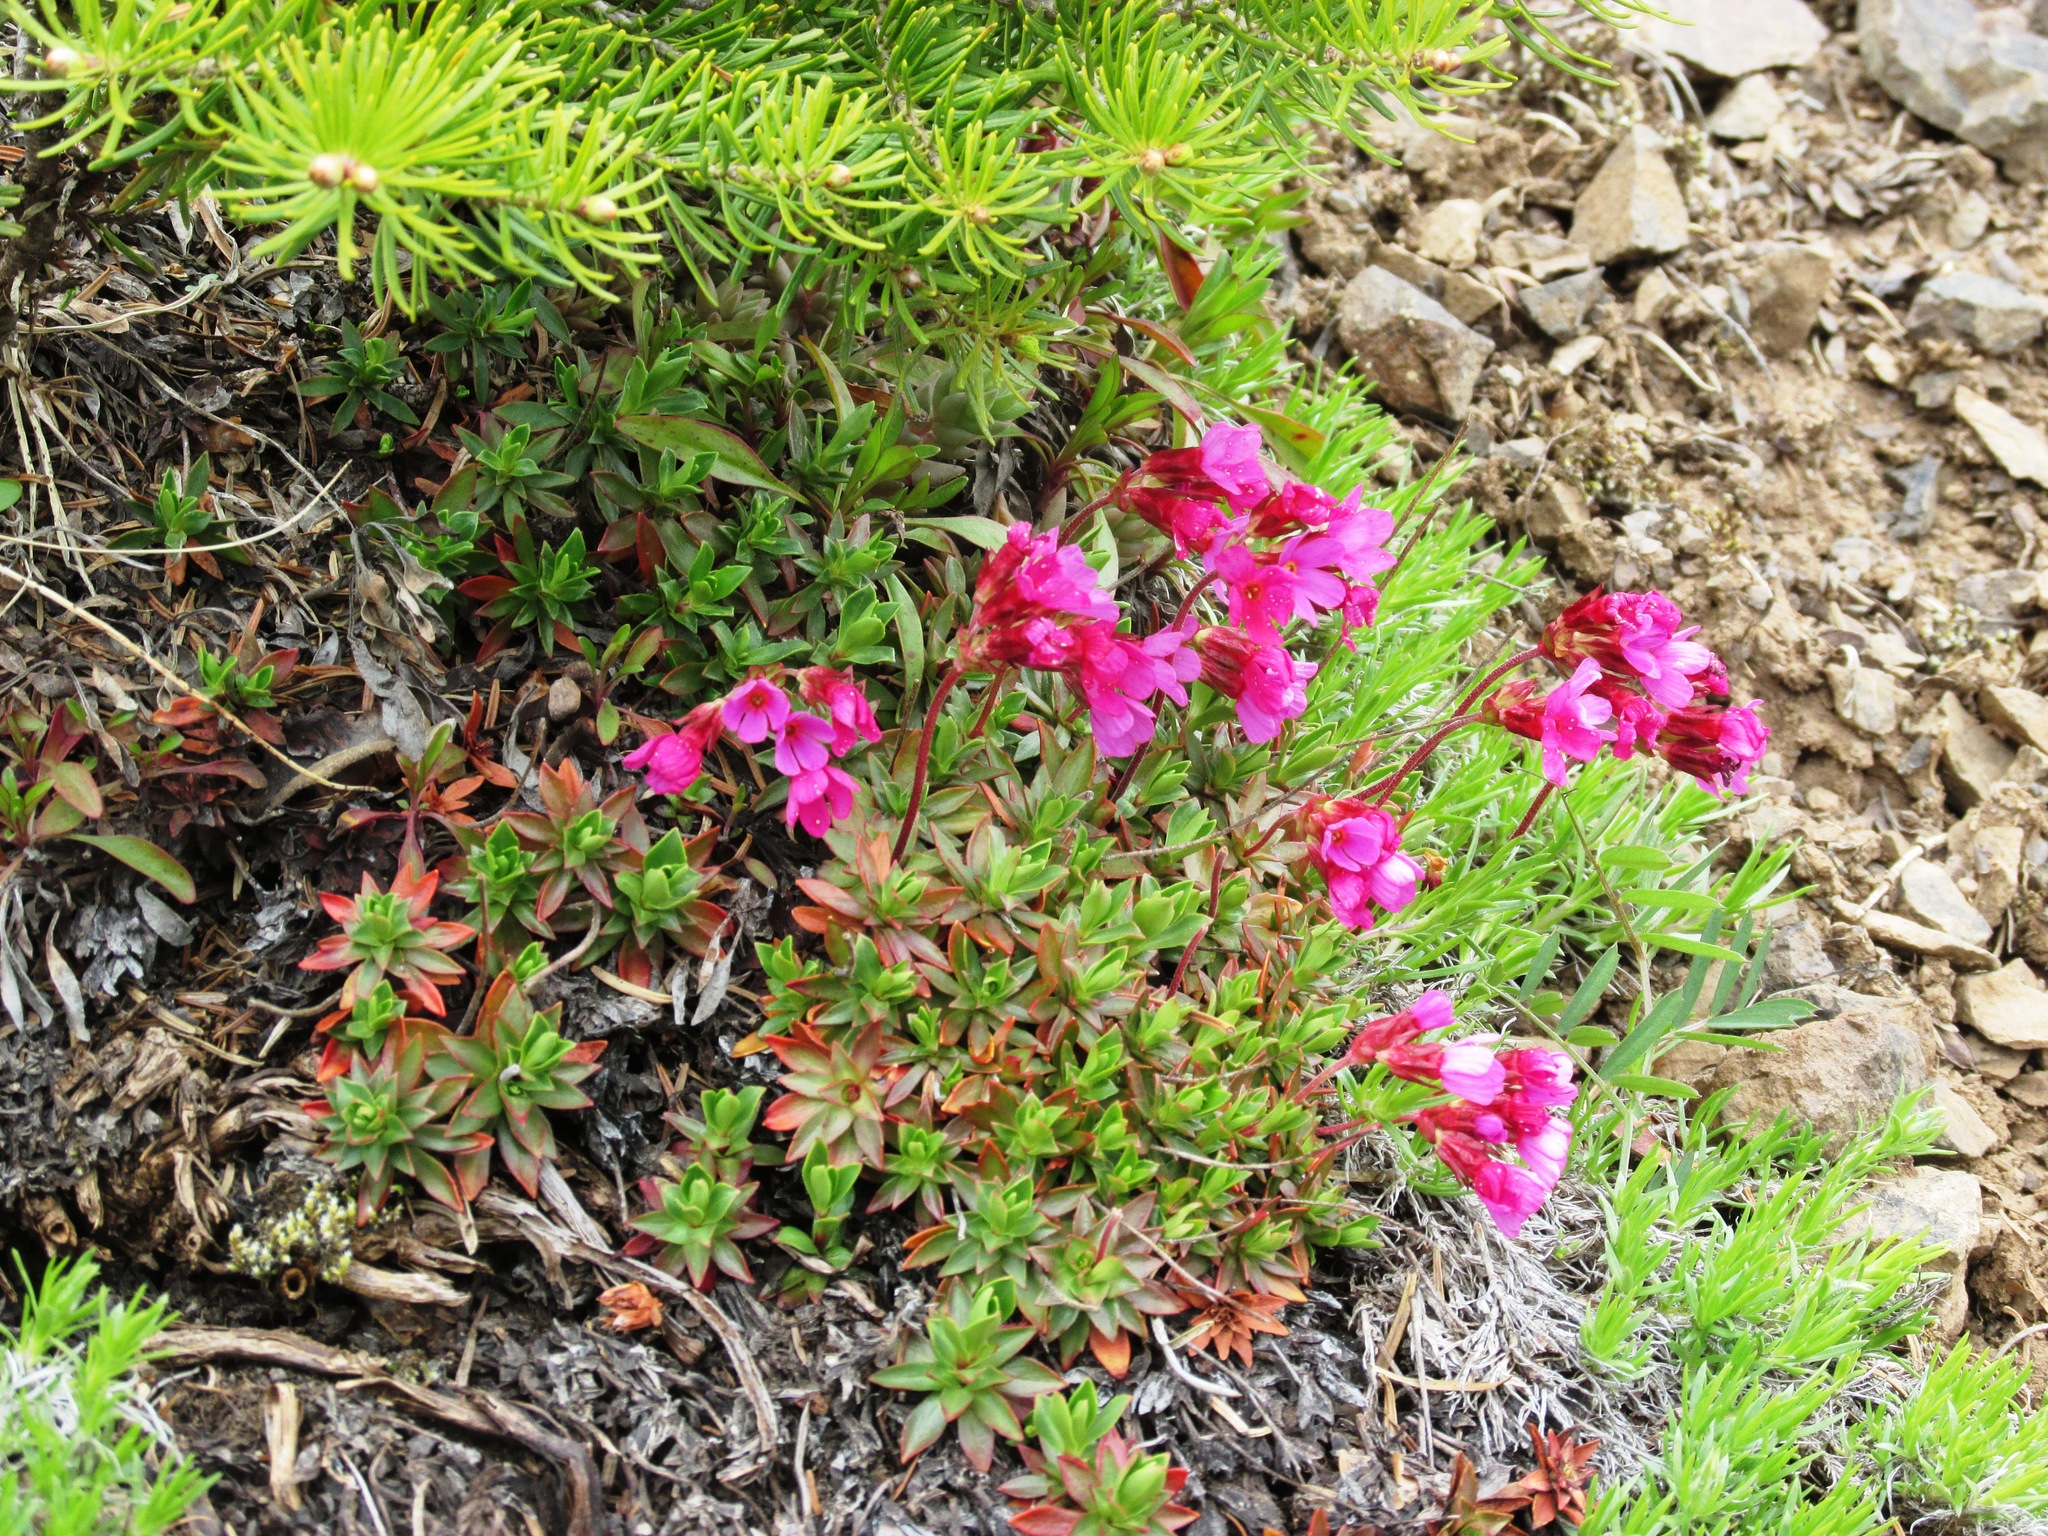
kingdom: Plantae
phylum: Tracheophyta
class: Magnoliopsida
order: Ericales
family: Primulaceae
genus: Androsace
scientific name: Androsace laevigata
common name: Cliff dwarf-primrose
